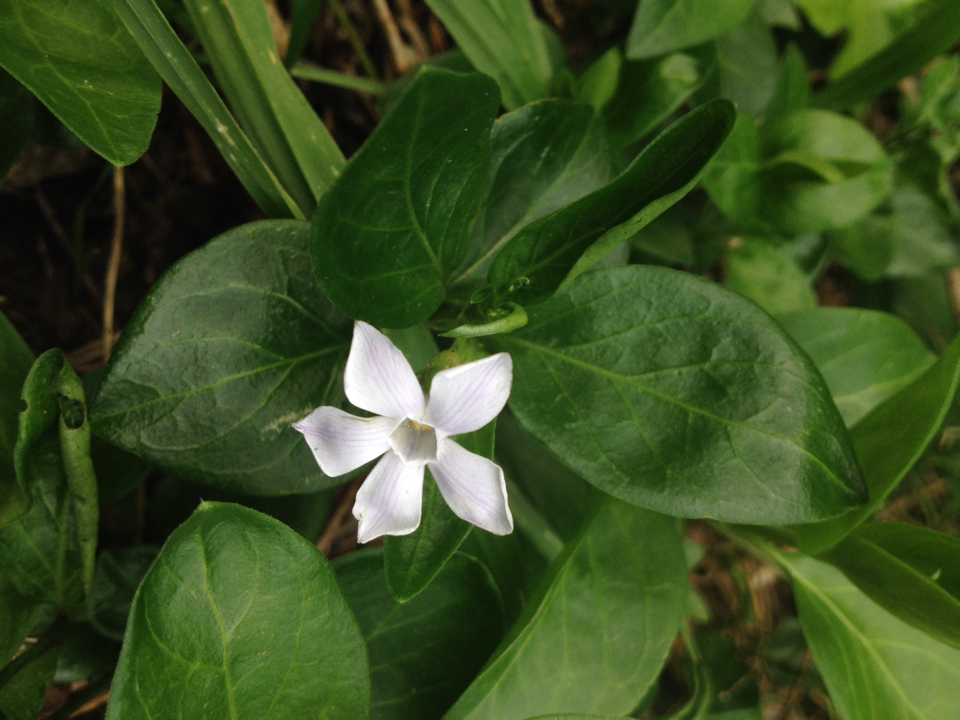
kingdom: Plantae
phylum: Tracheophyta
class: Magnoliopsida
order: Gentianales
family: Apocynaceae
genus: Vinca
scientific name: Vinca major
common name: Greater periwinkle
